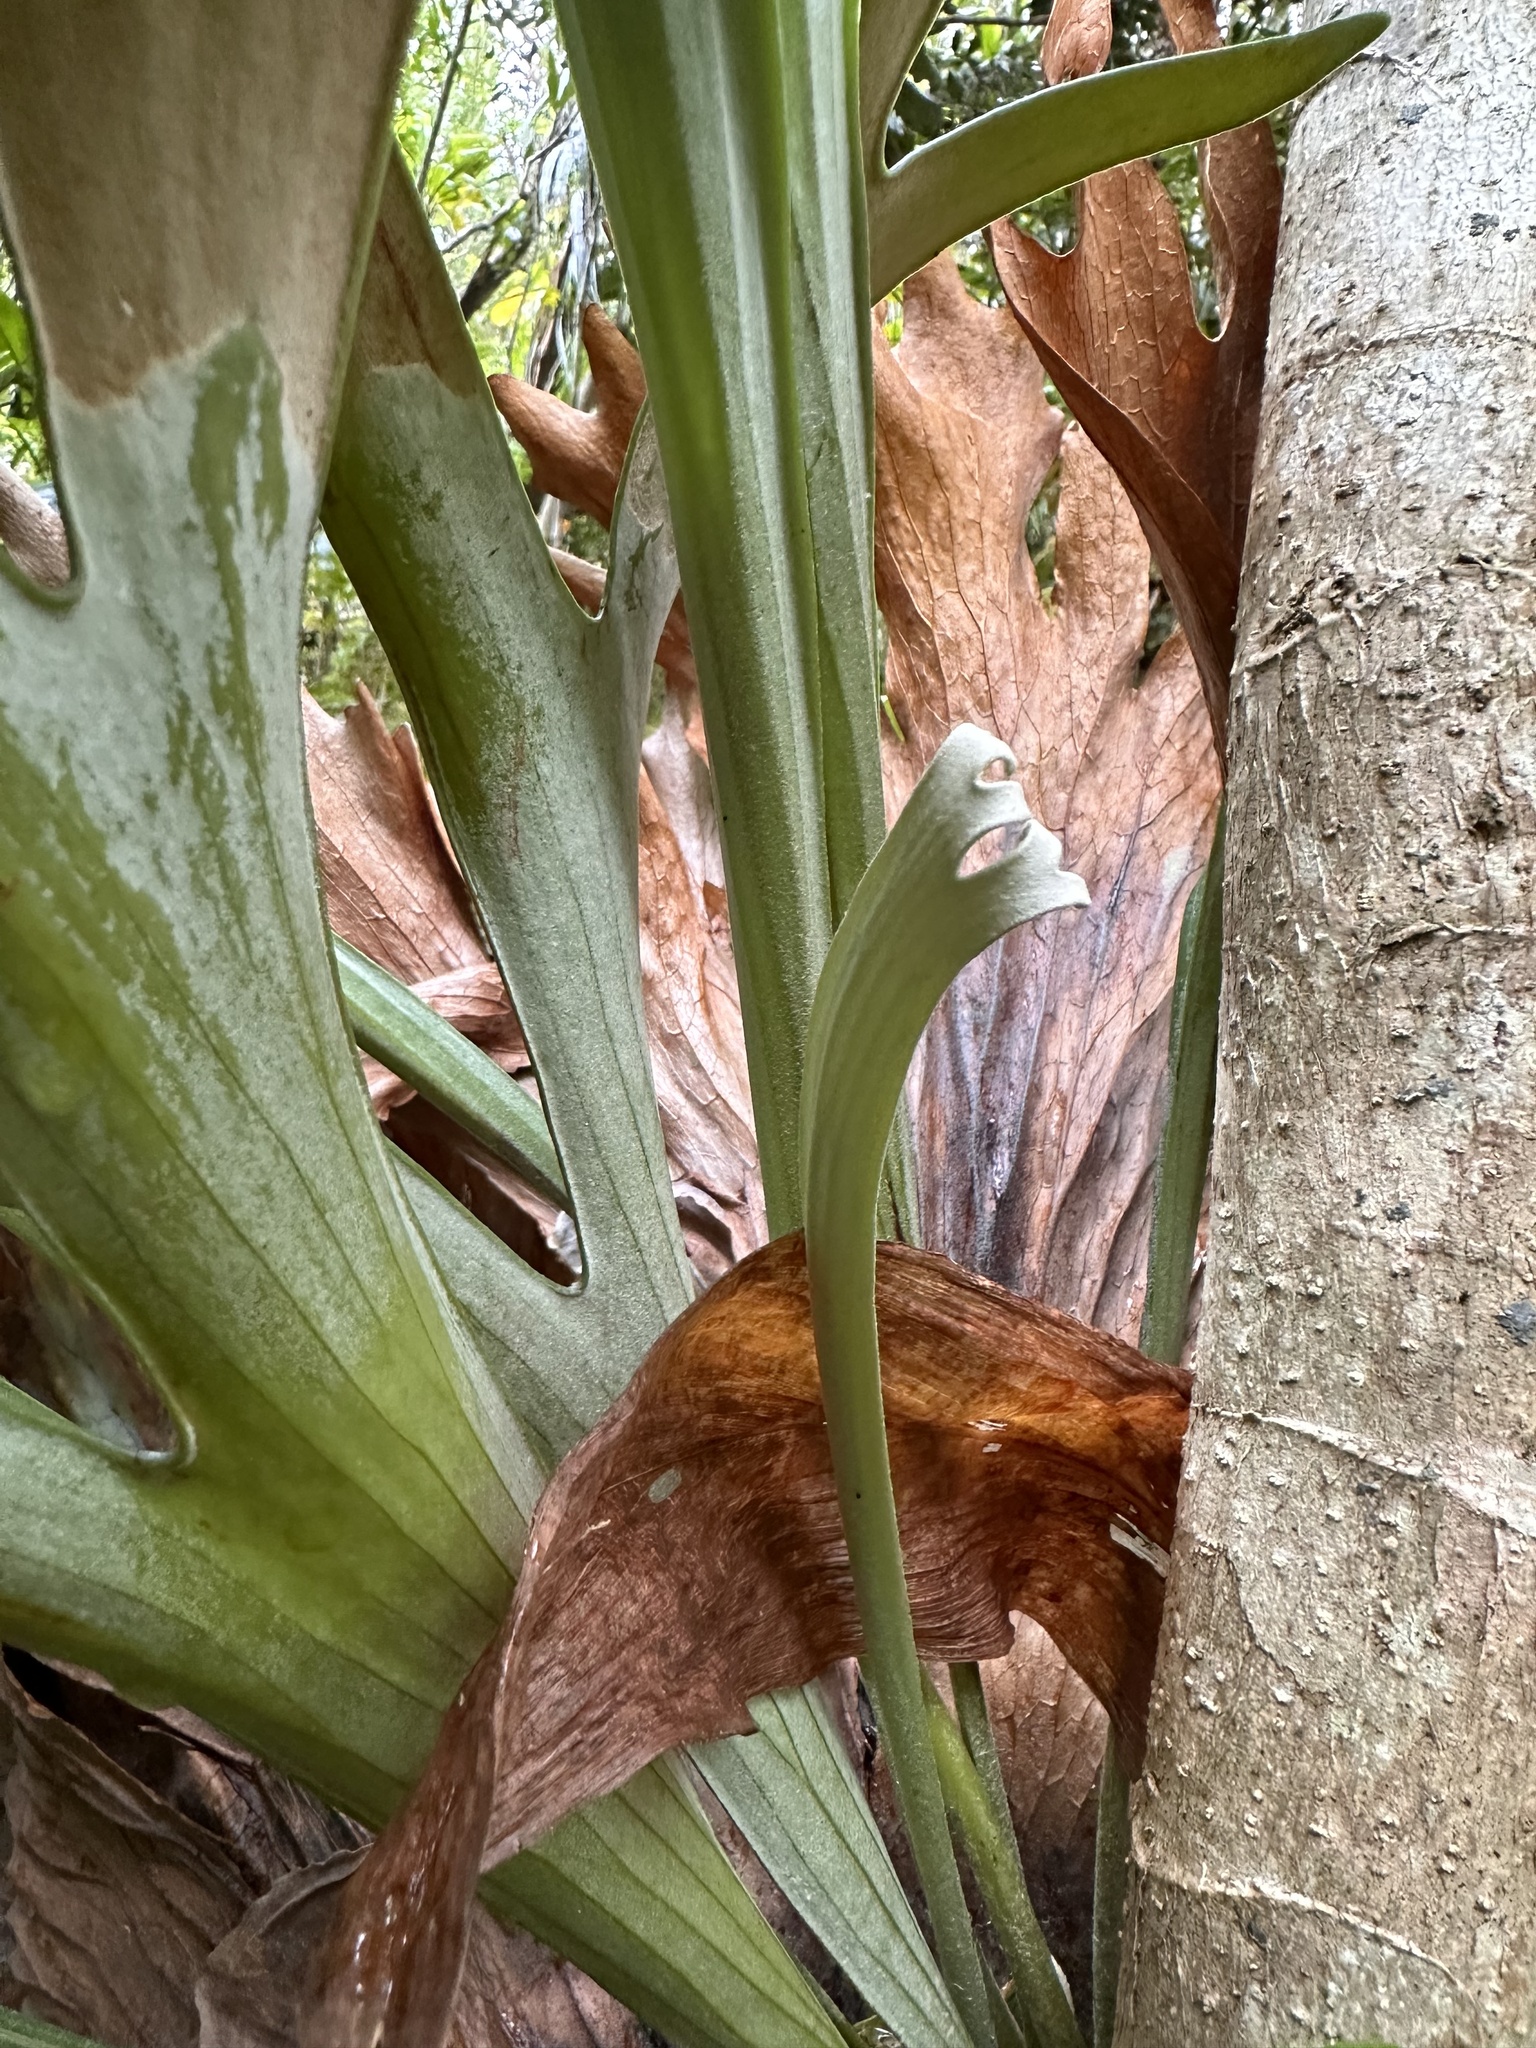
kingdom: Plantae
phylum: Tracheophyta
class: Polypodiopsida
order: Polypodiales
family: Polypodiaceae
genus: Platycerium
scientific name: Platycerium bifurcatum
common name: Elkhorn fern
